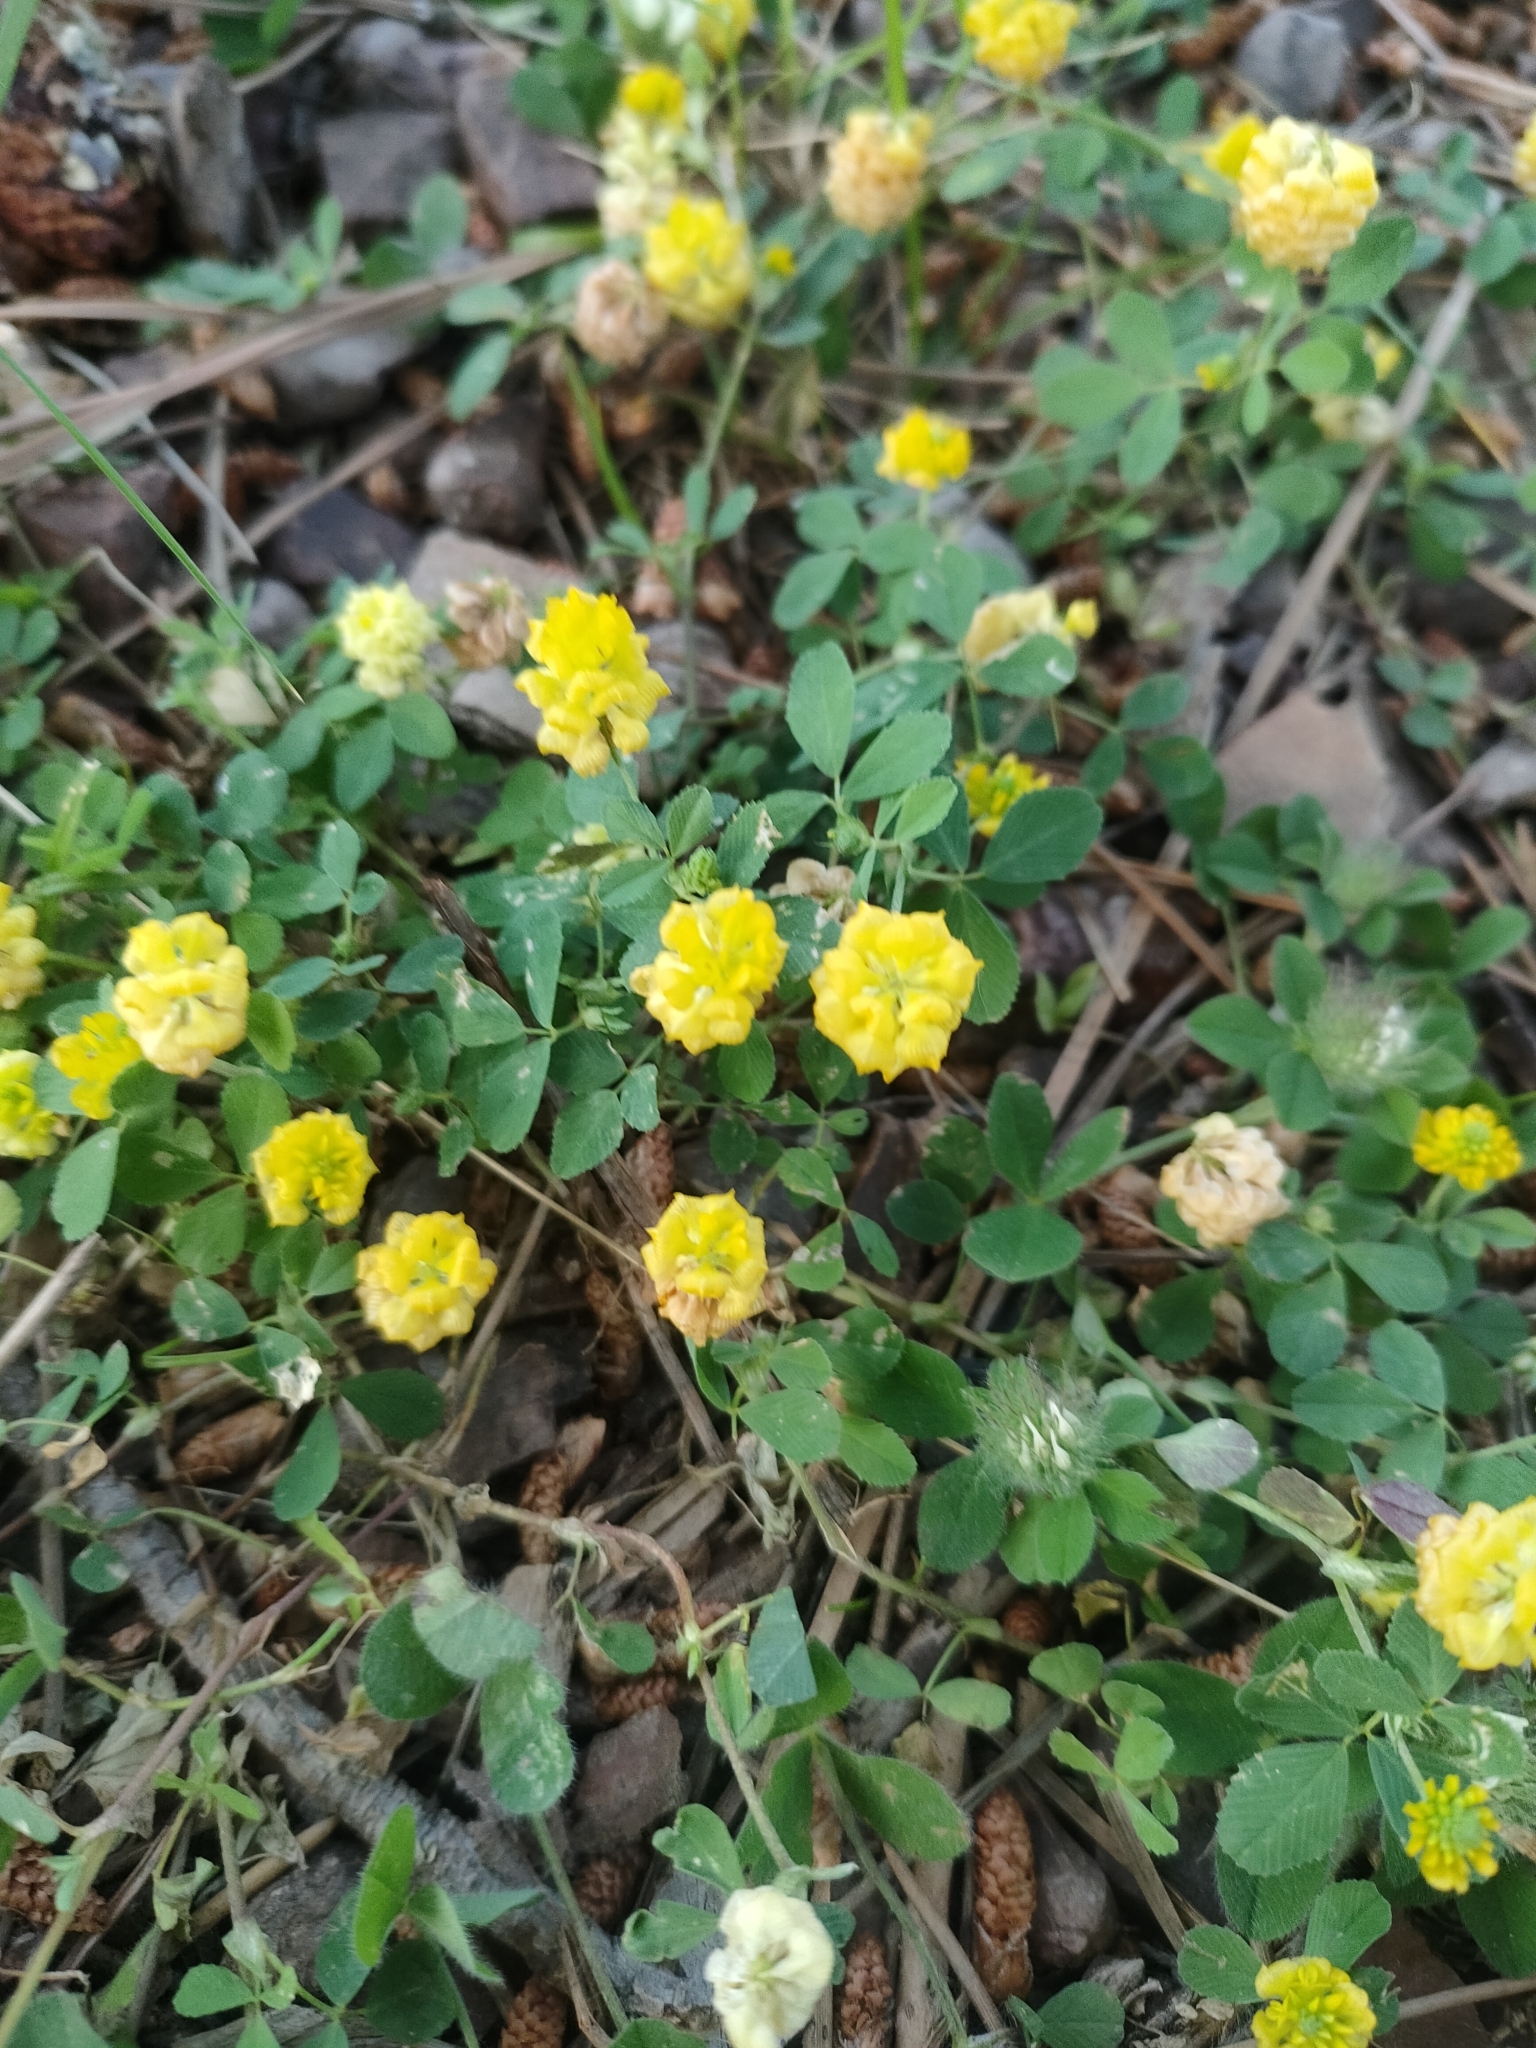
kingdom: Plantae
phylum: Tracheophyta
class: Magnoliopsida
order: Fabales
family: Fabaceae
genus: Trifolium
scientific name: Trifolium campestre
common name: Field clover
